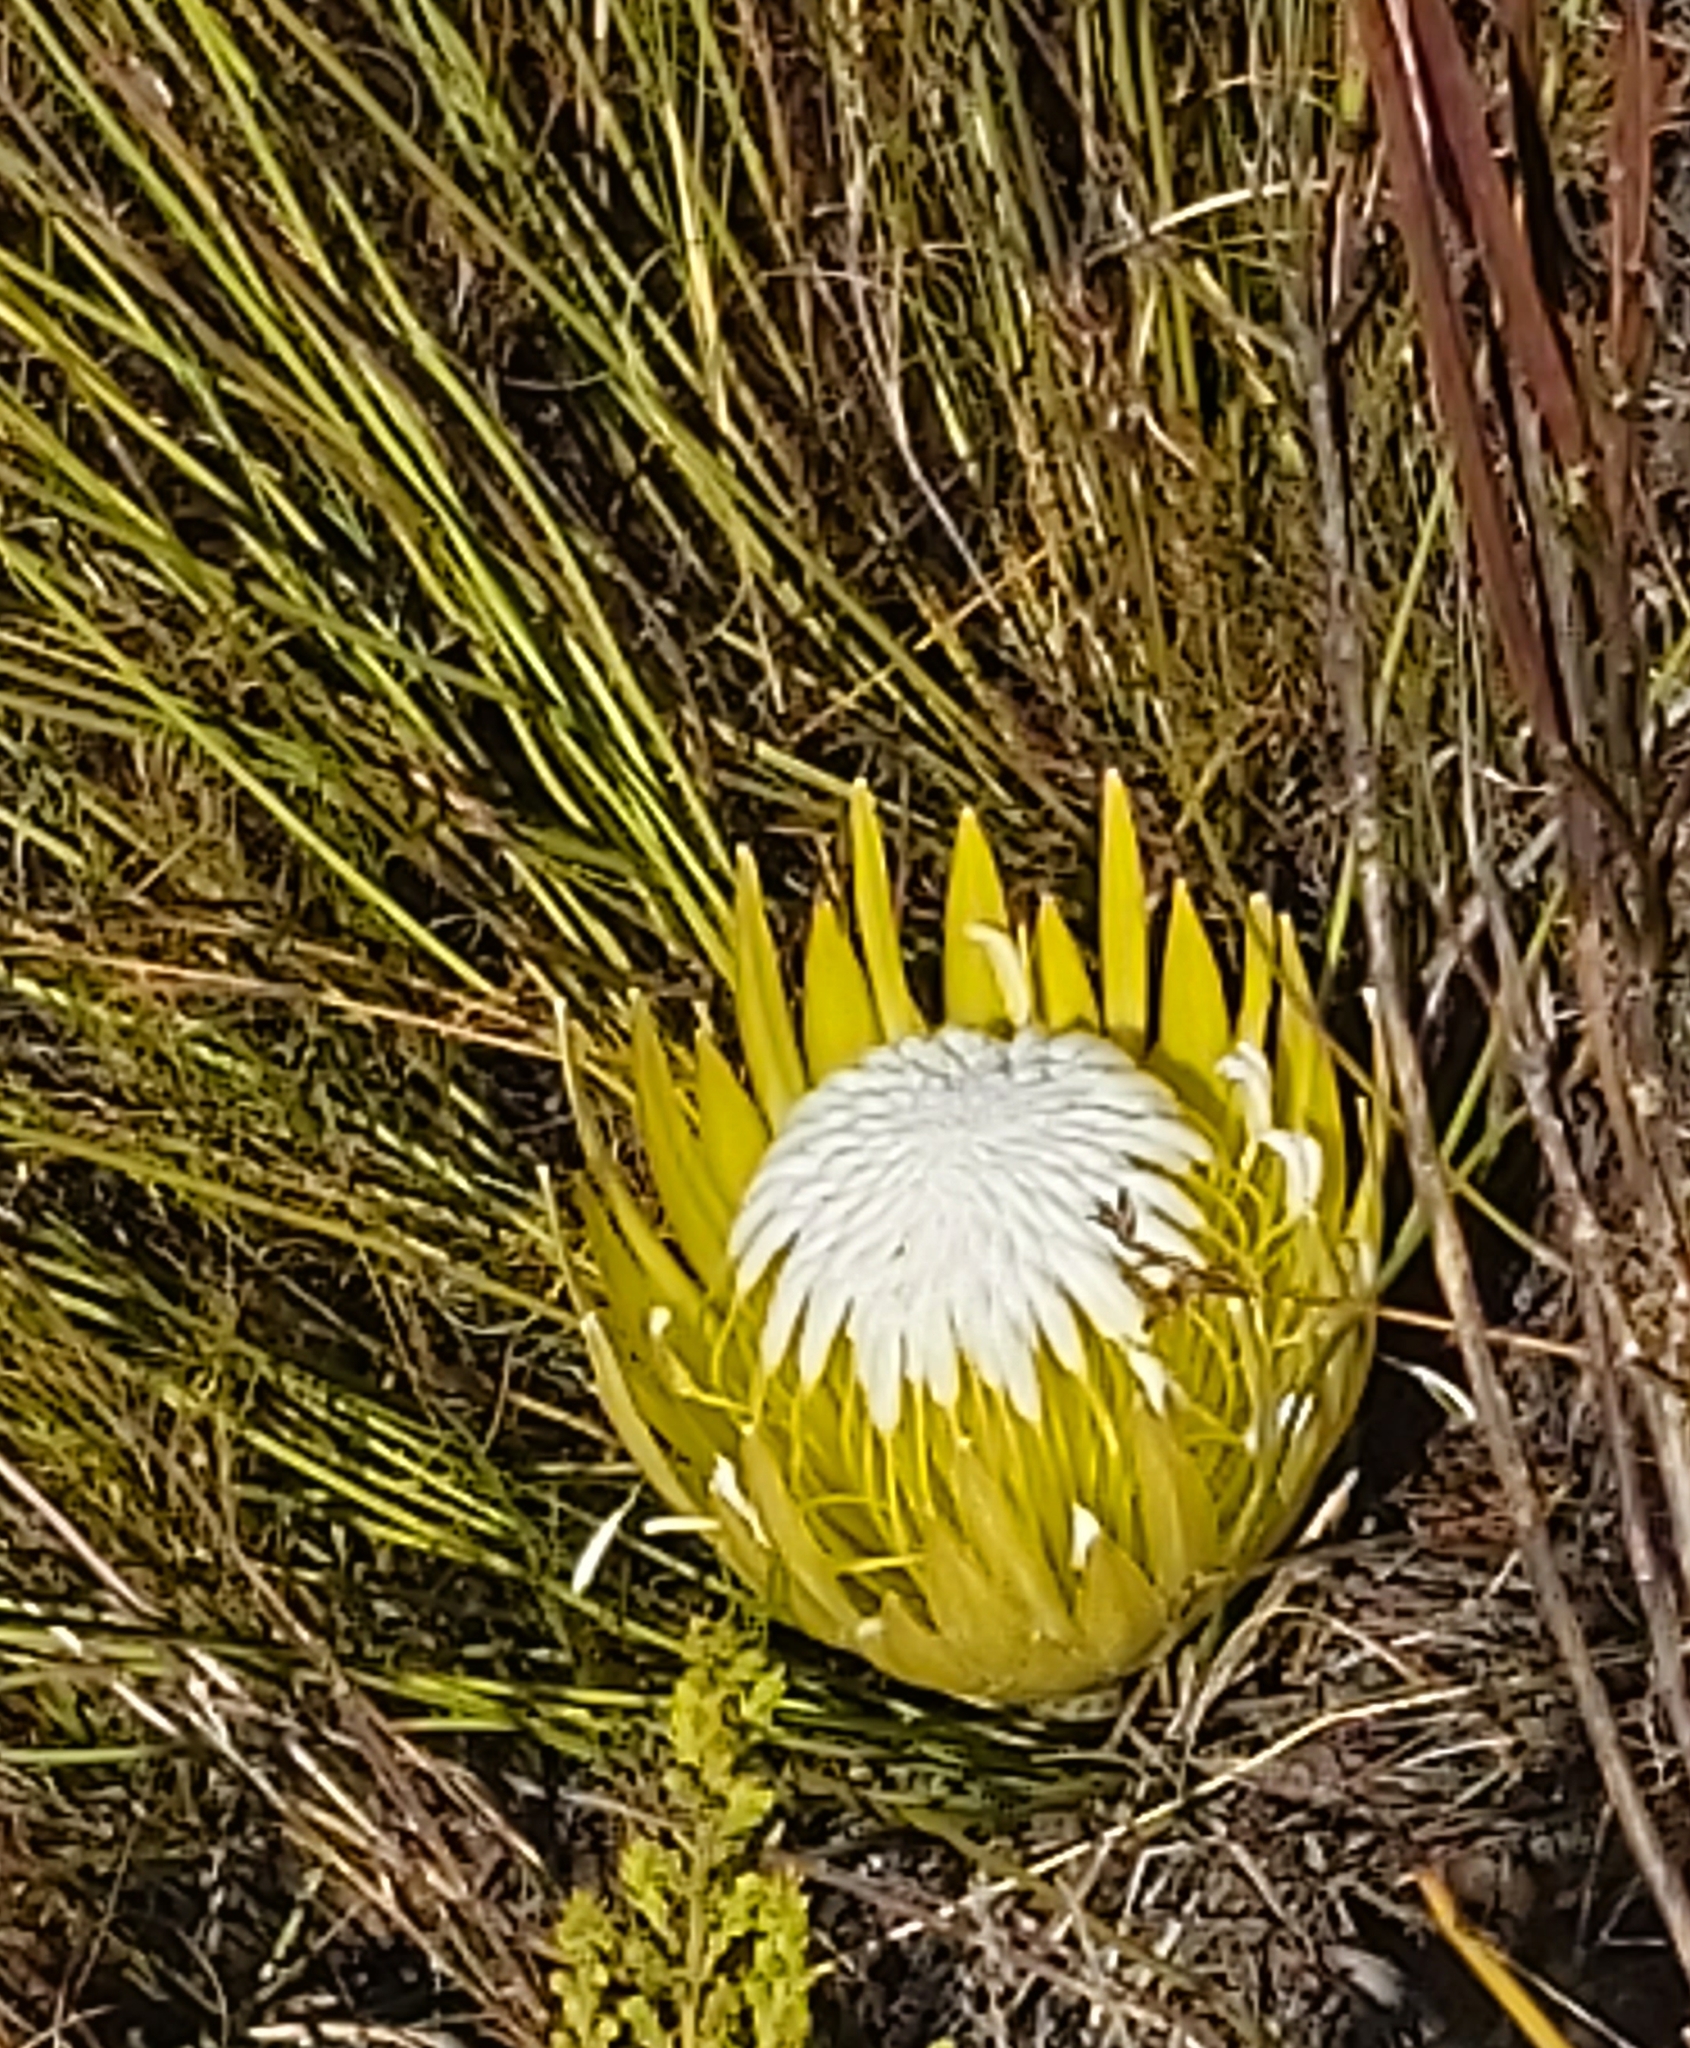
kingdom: Plantae
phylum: Tracheophyta
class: Magnoliopsida
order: Proteales
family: Proteaceae
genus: Protea
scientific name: Protea lorea
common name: Thong-leaf sugarbush
